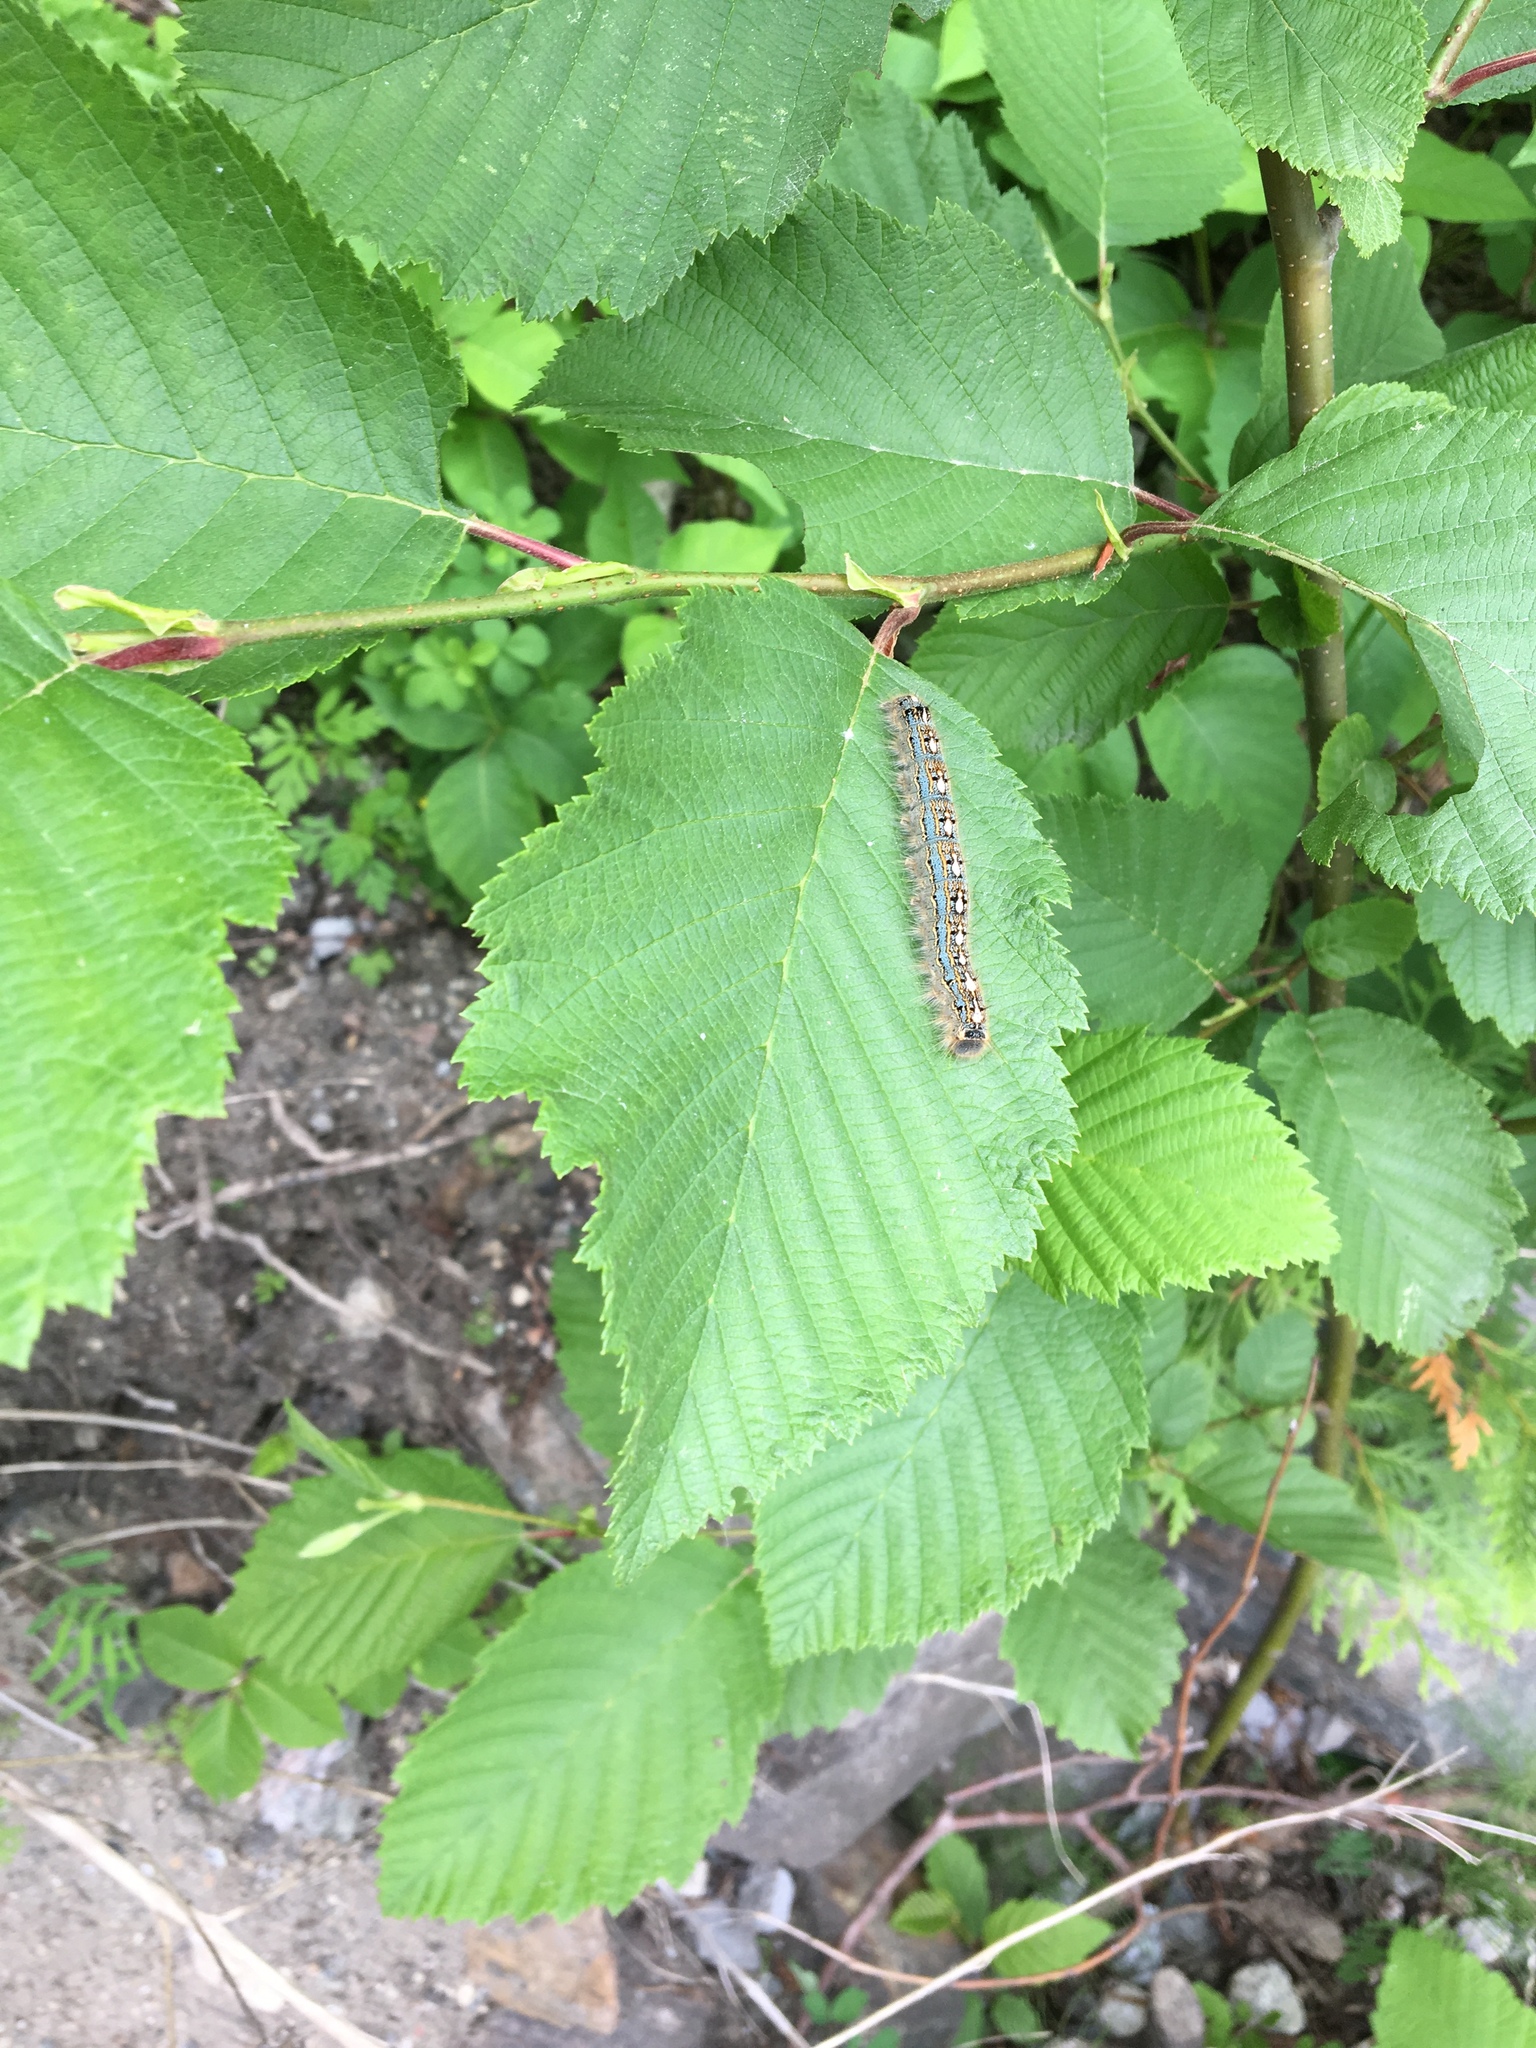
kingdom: Animalia
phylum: Arthropoda
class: Insecta
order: Lepidoptera
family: Lasiocampidae
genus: Malacosoma
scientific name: Malacosoma disstria
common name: Forest tent caterpillar
